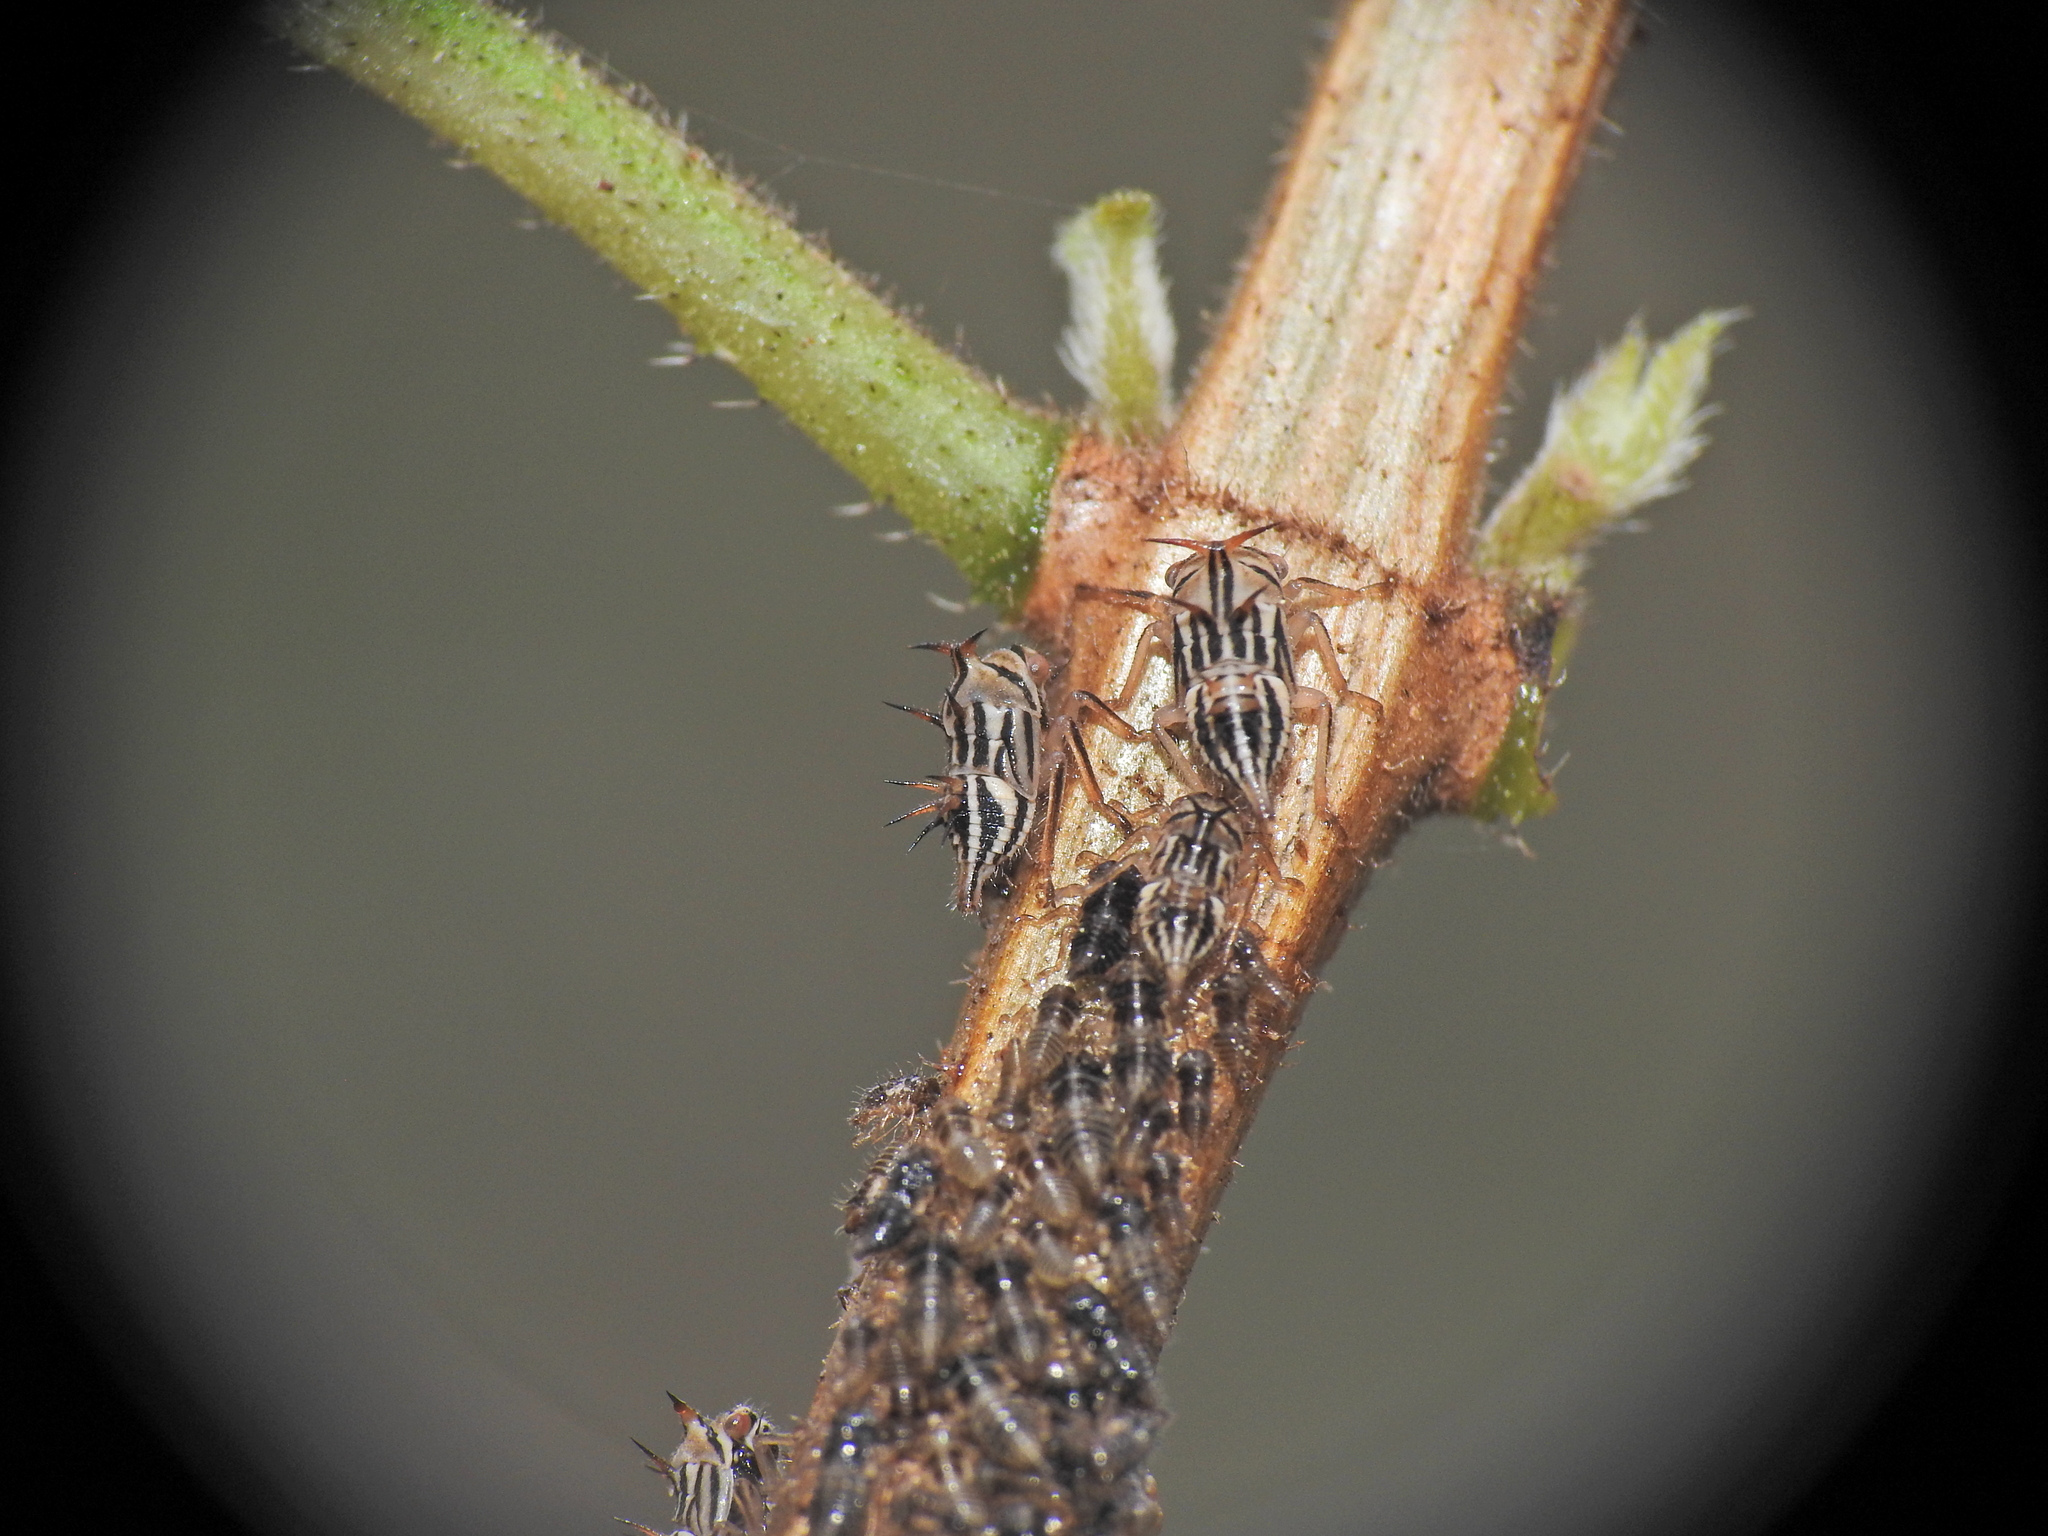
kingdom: Animalia
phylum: Arthropoda
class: Insecta
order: Hemiptera
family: Membracidae
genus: Aconophora
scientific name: Aconophora compressa
